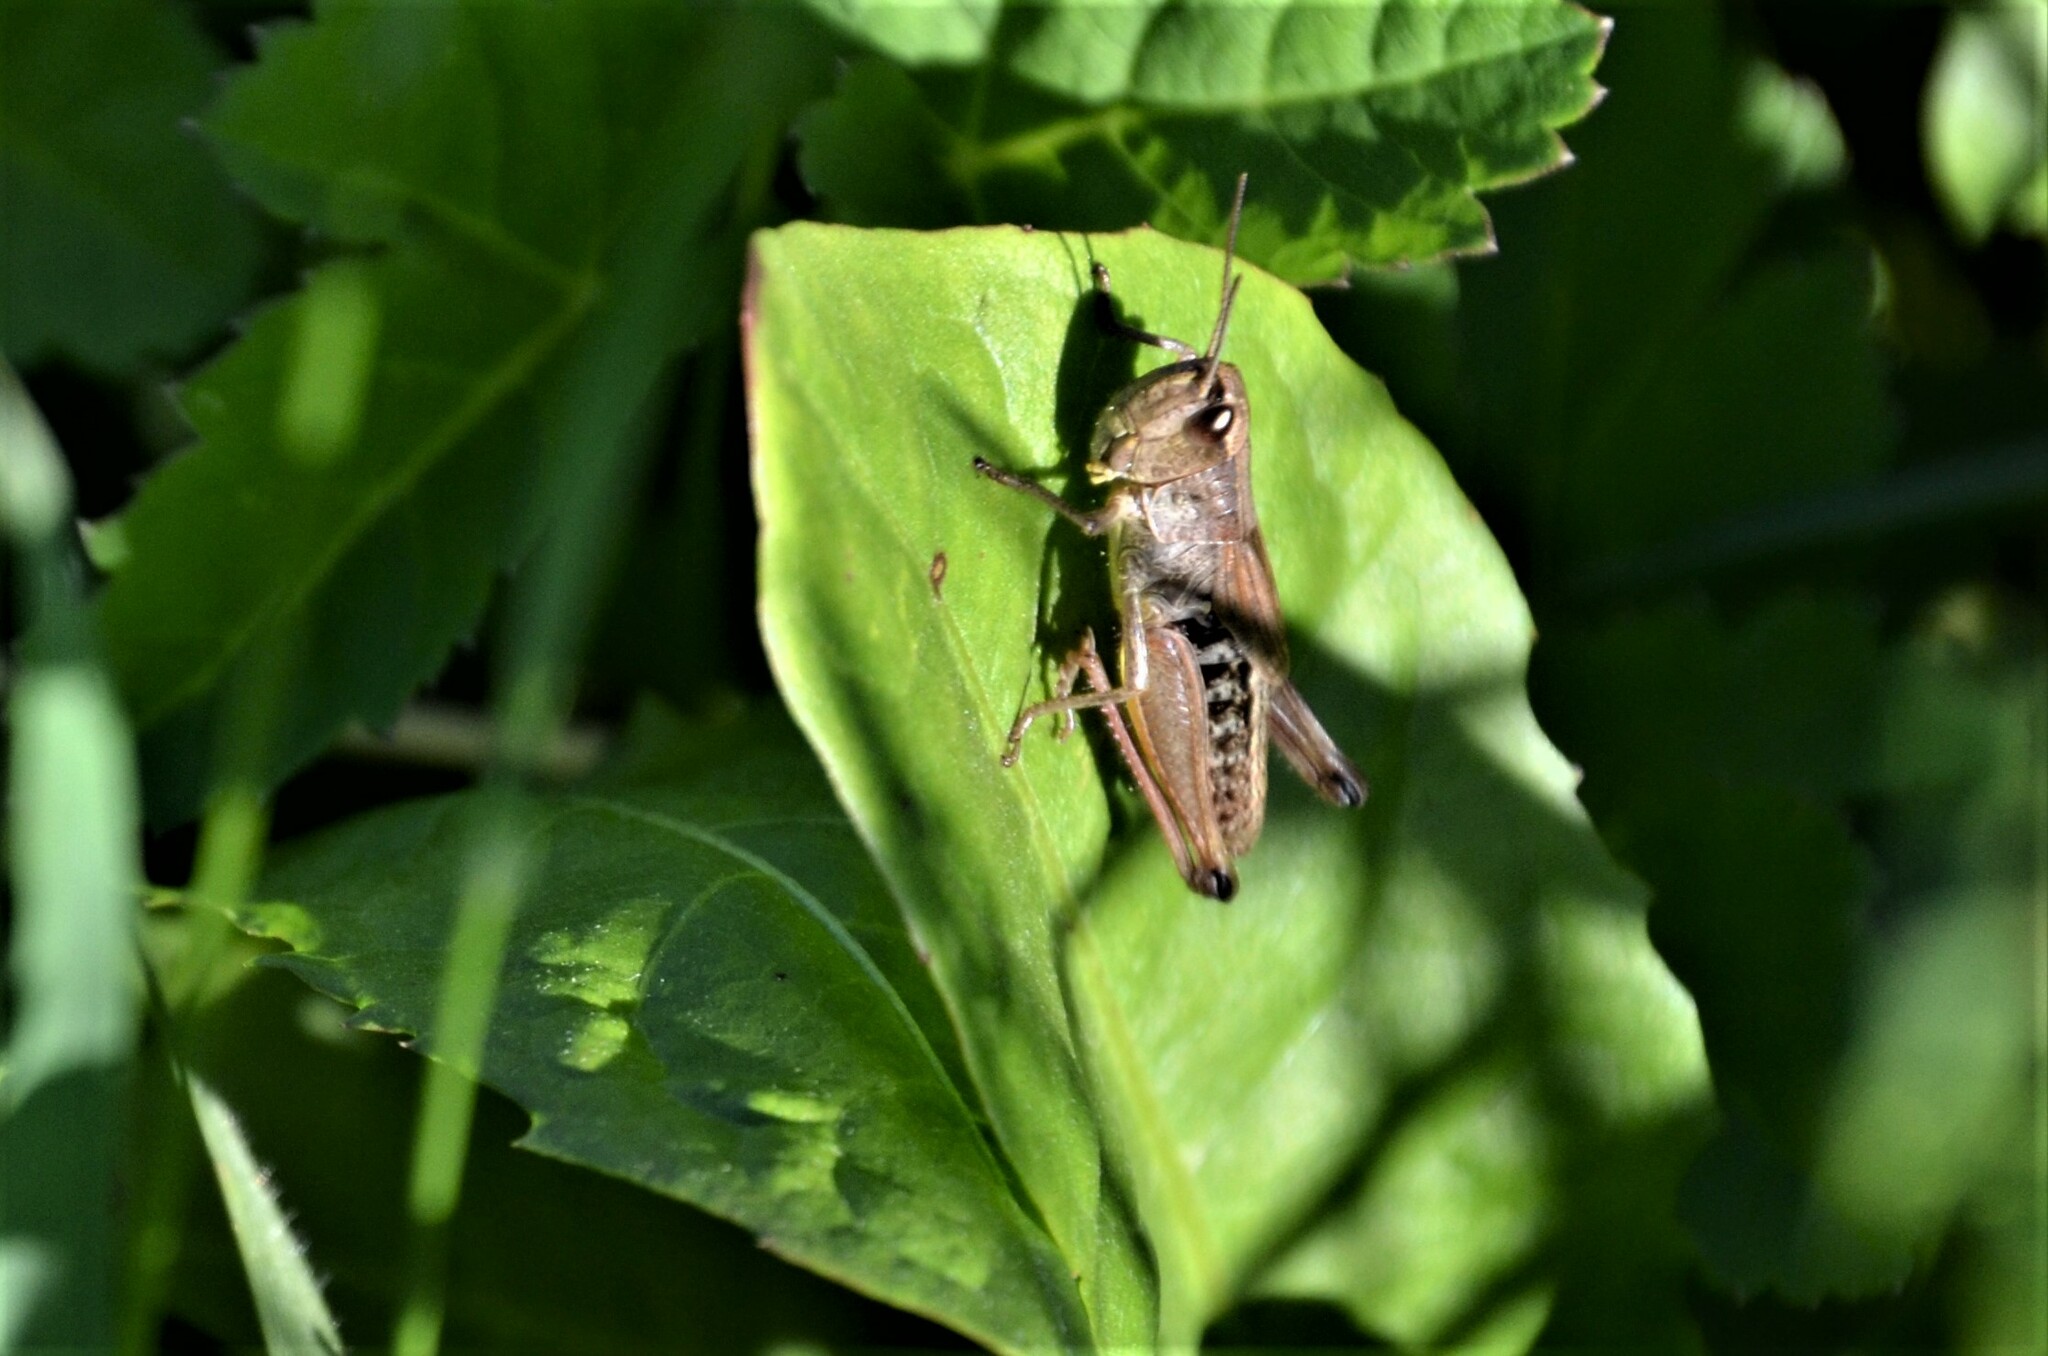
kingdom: Animalia
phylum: Arthropoda
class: Insecta
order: Orthoptera
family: Acrididae
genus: Pseudochorthippus
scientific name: Pseudochorthippus parallelus
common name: Meadow grasshopper
